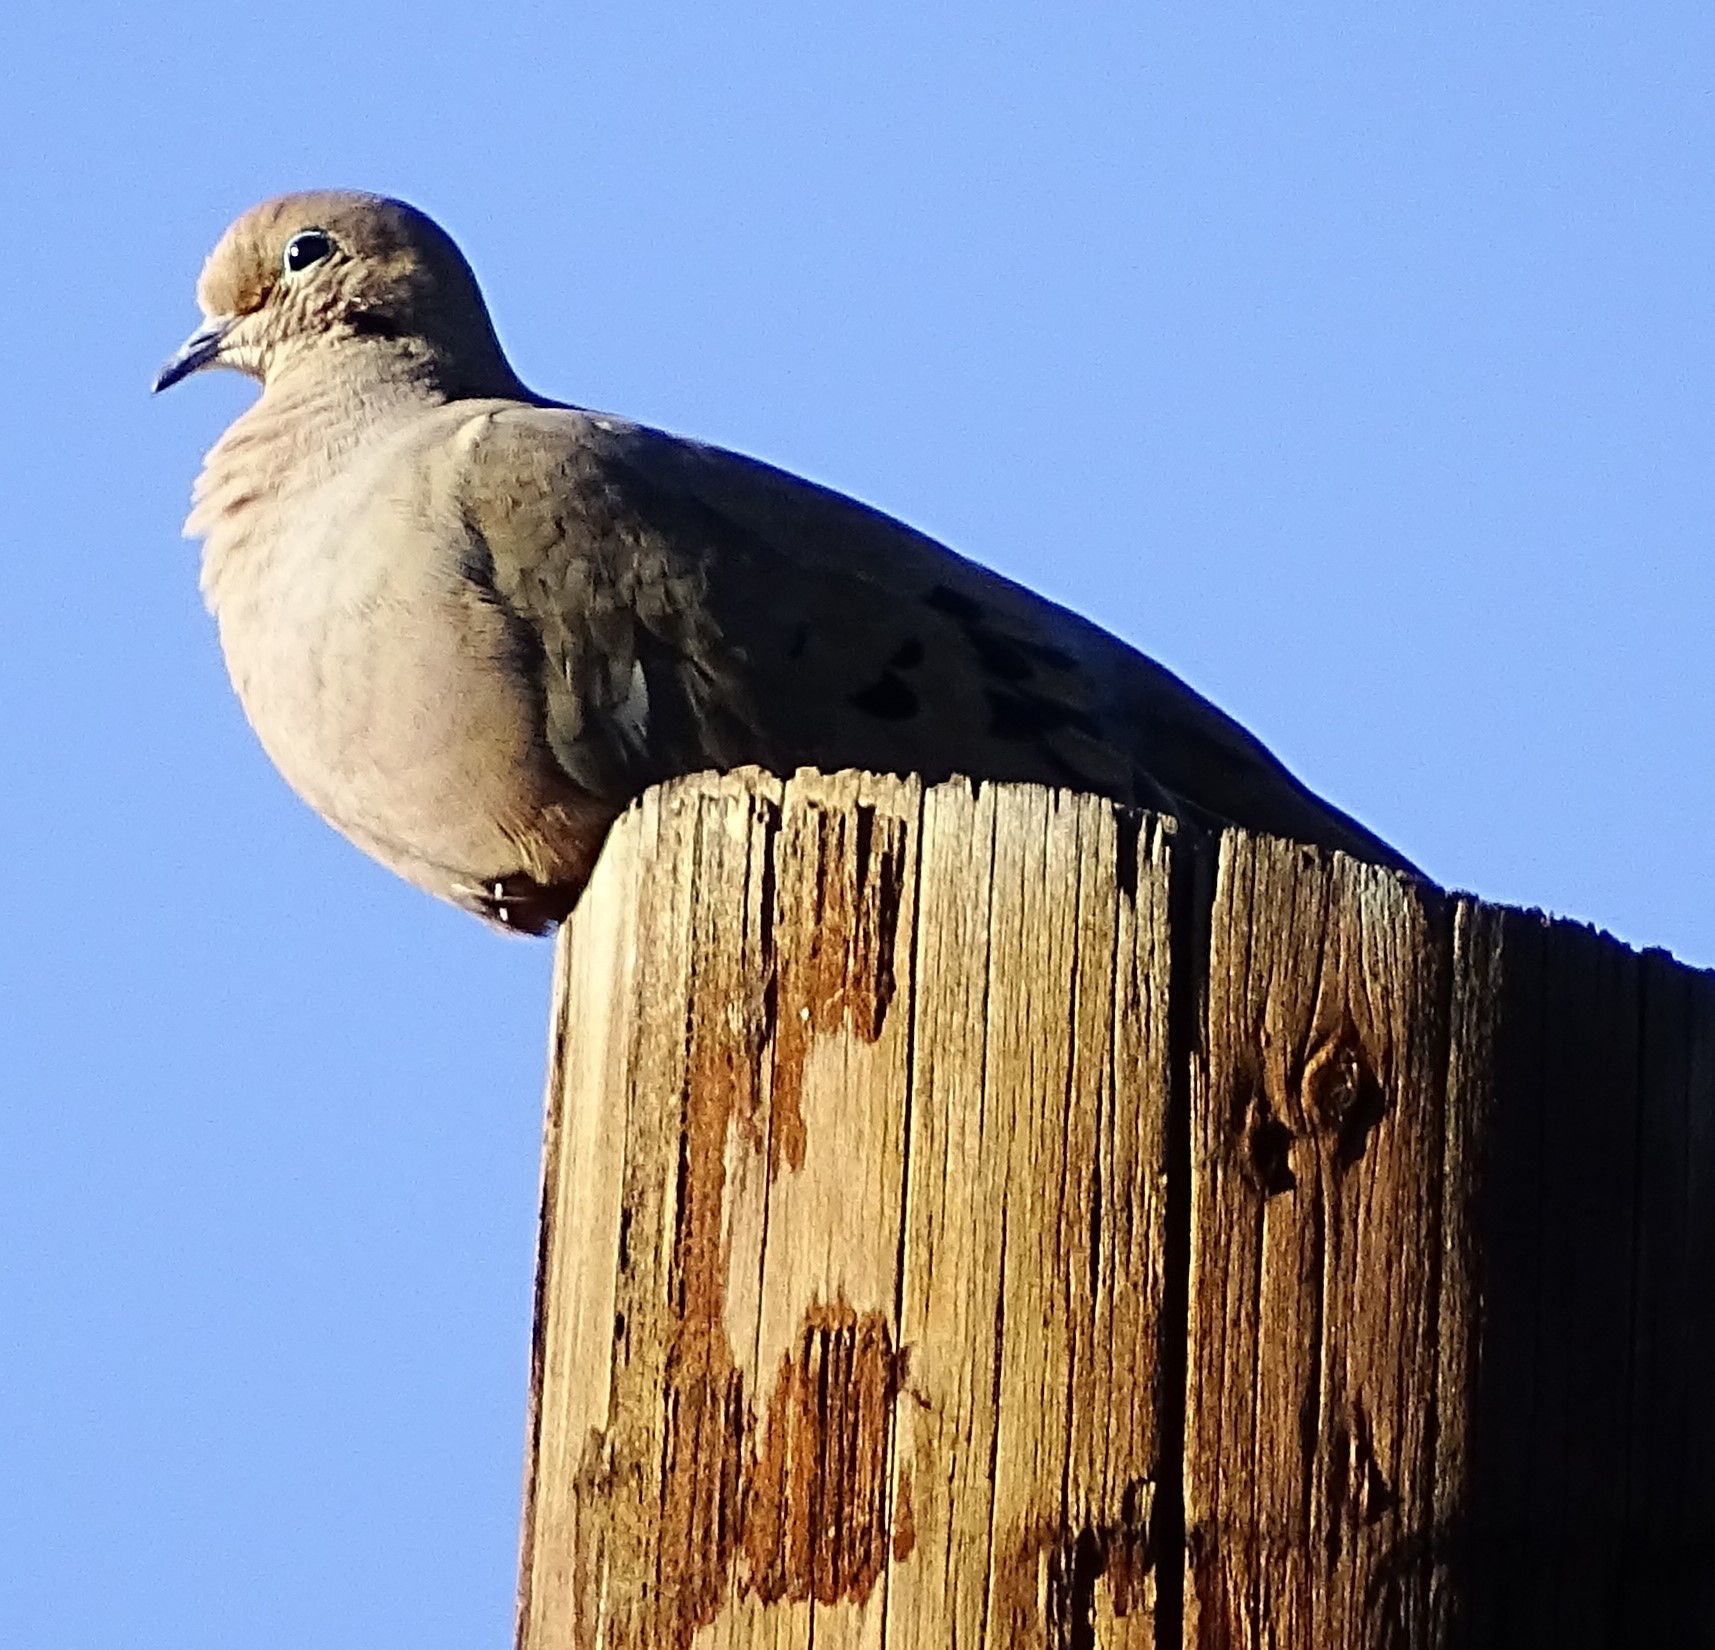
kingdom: Animalia
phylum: Chordata
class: Aves
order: Columbiformes
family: Columbidae
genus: Zenaida
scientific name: Zenaida macroura
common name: Mourning dove
